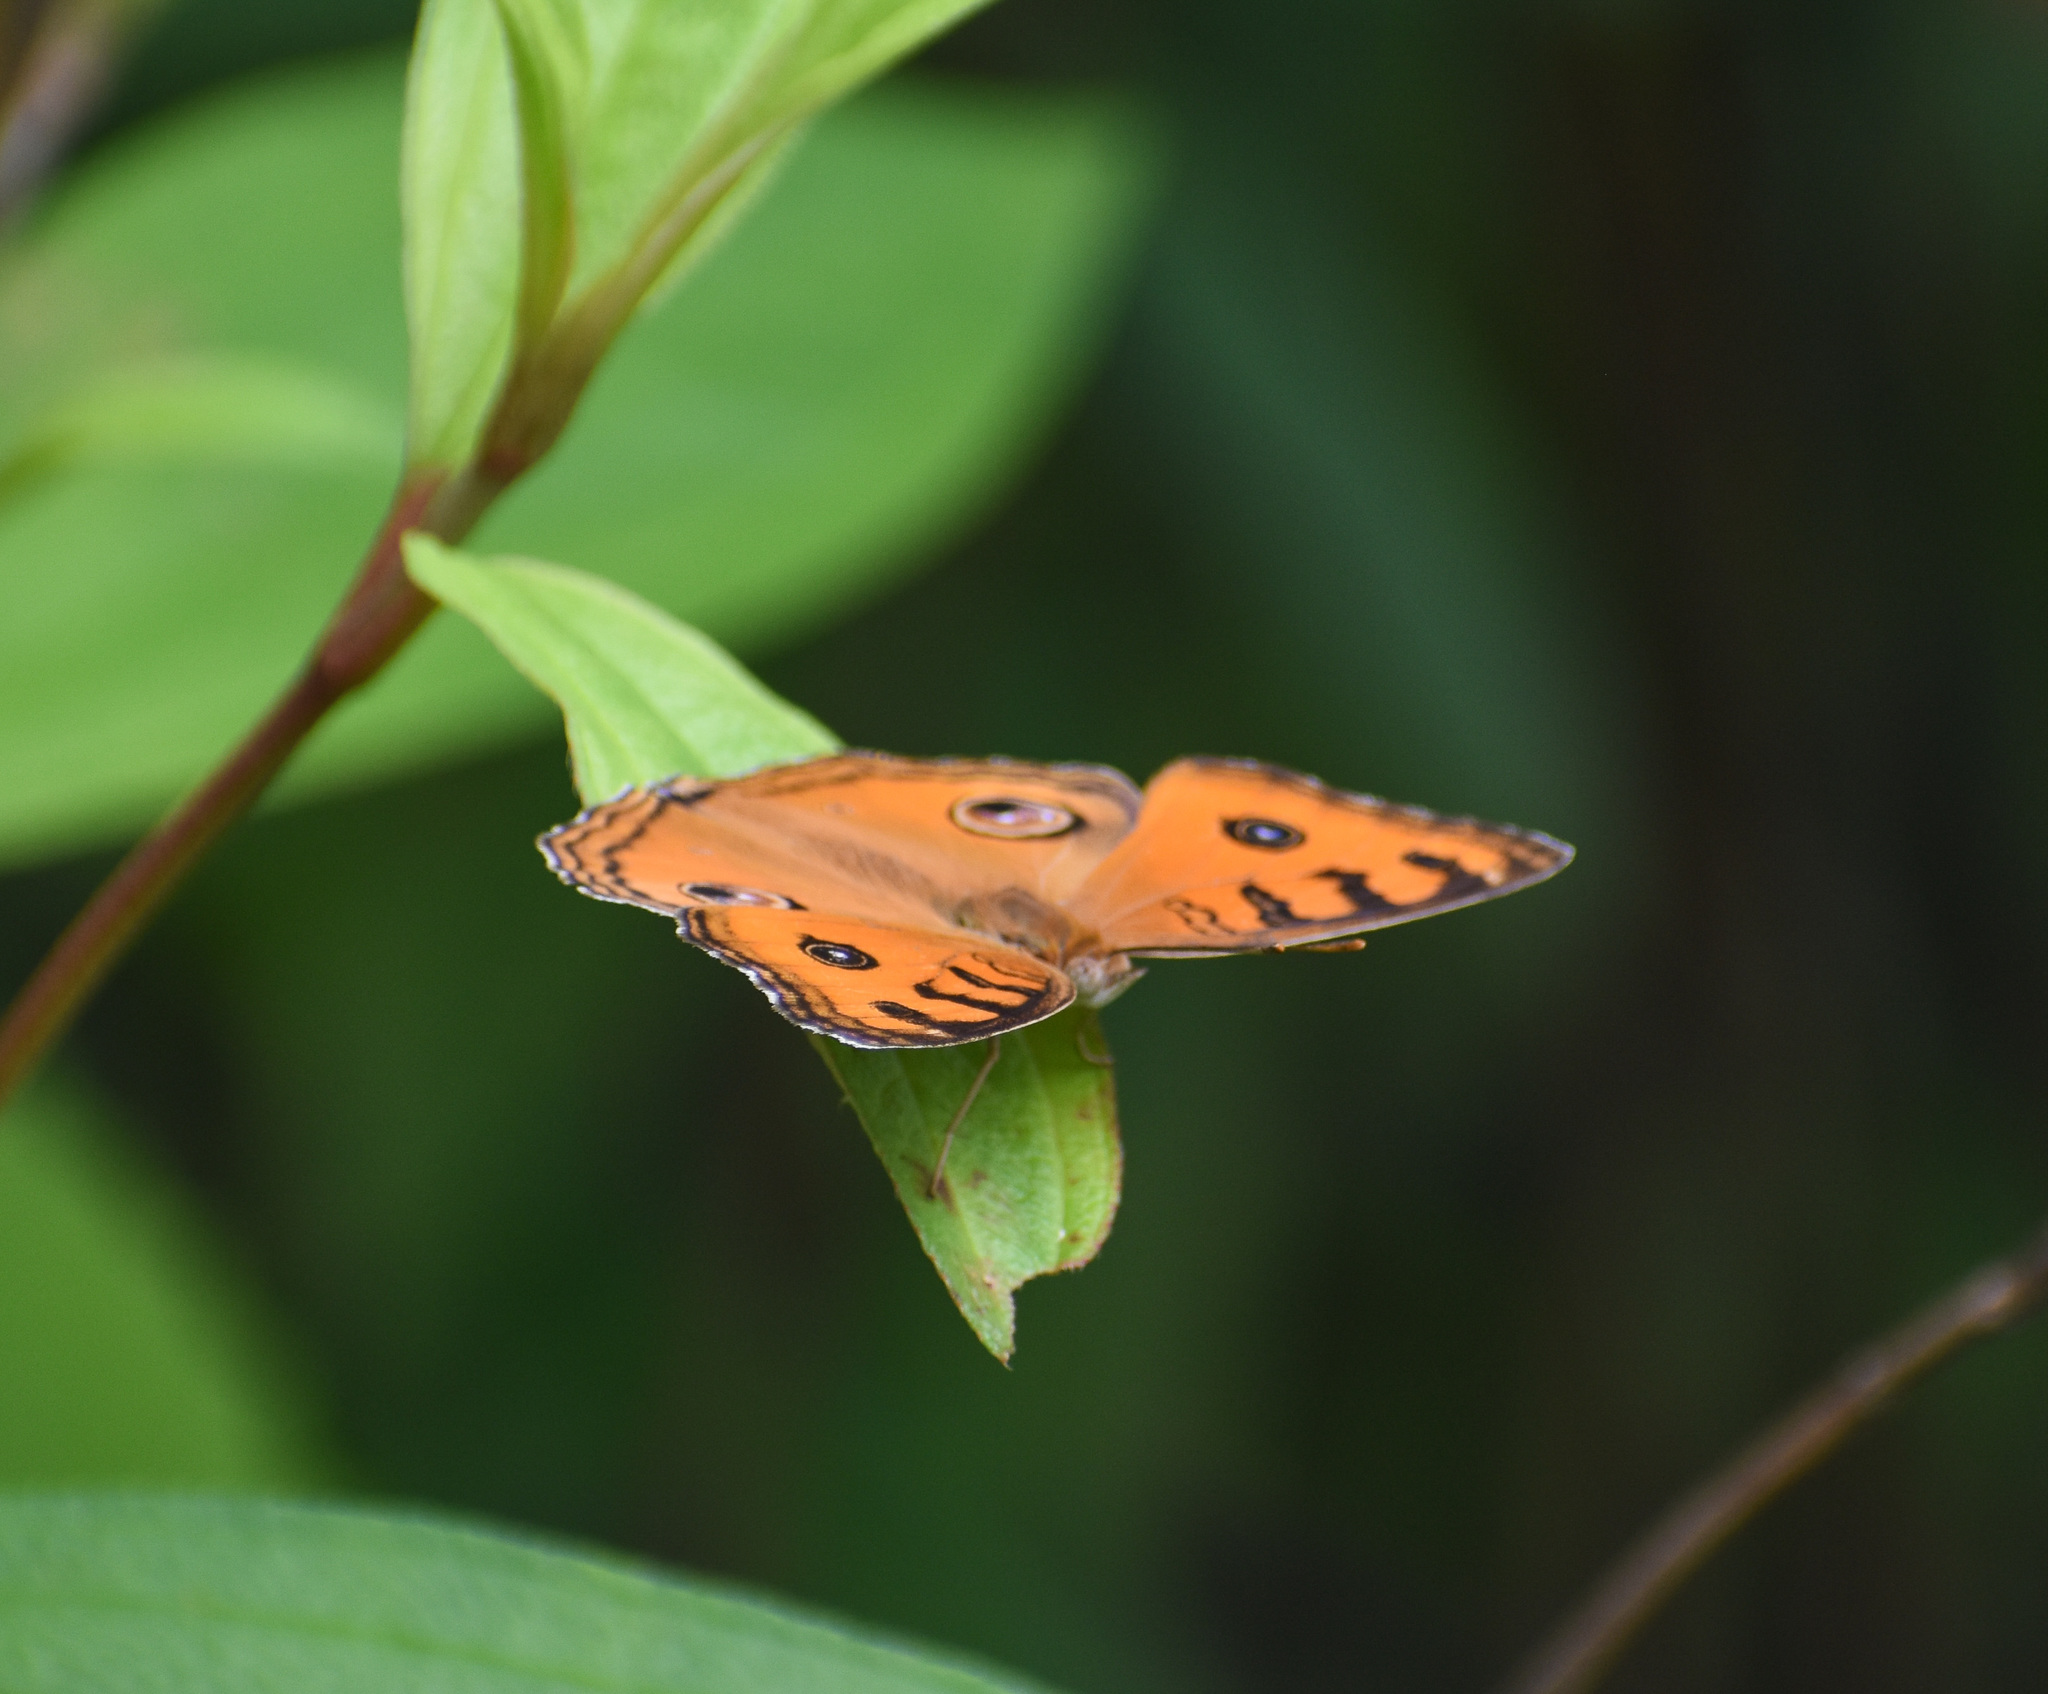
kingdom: Animalia
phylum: Arthropoda
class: Insecta
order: Lepidoptera
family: Nymphalidae
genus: Junonia
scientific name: Junonia almana
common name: Peacock pansy
